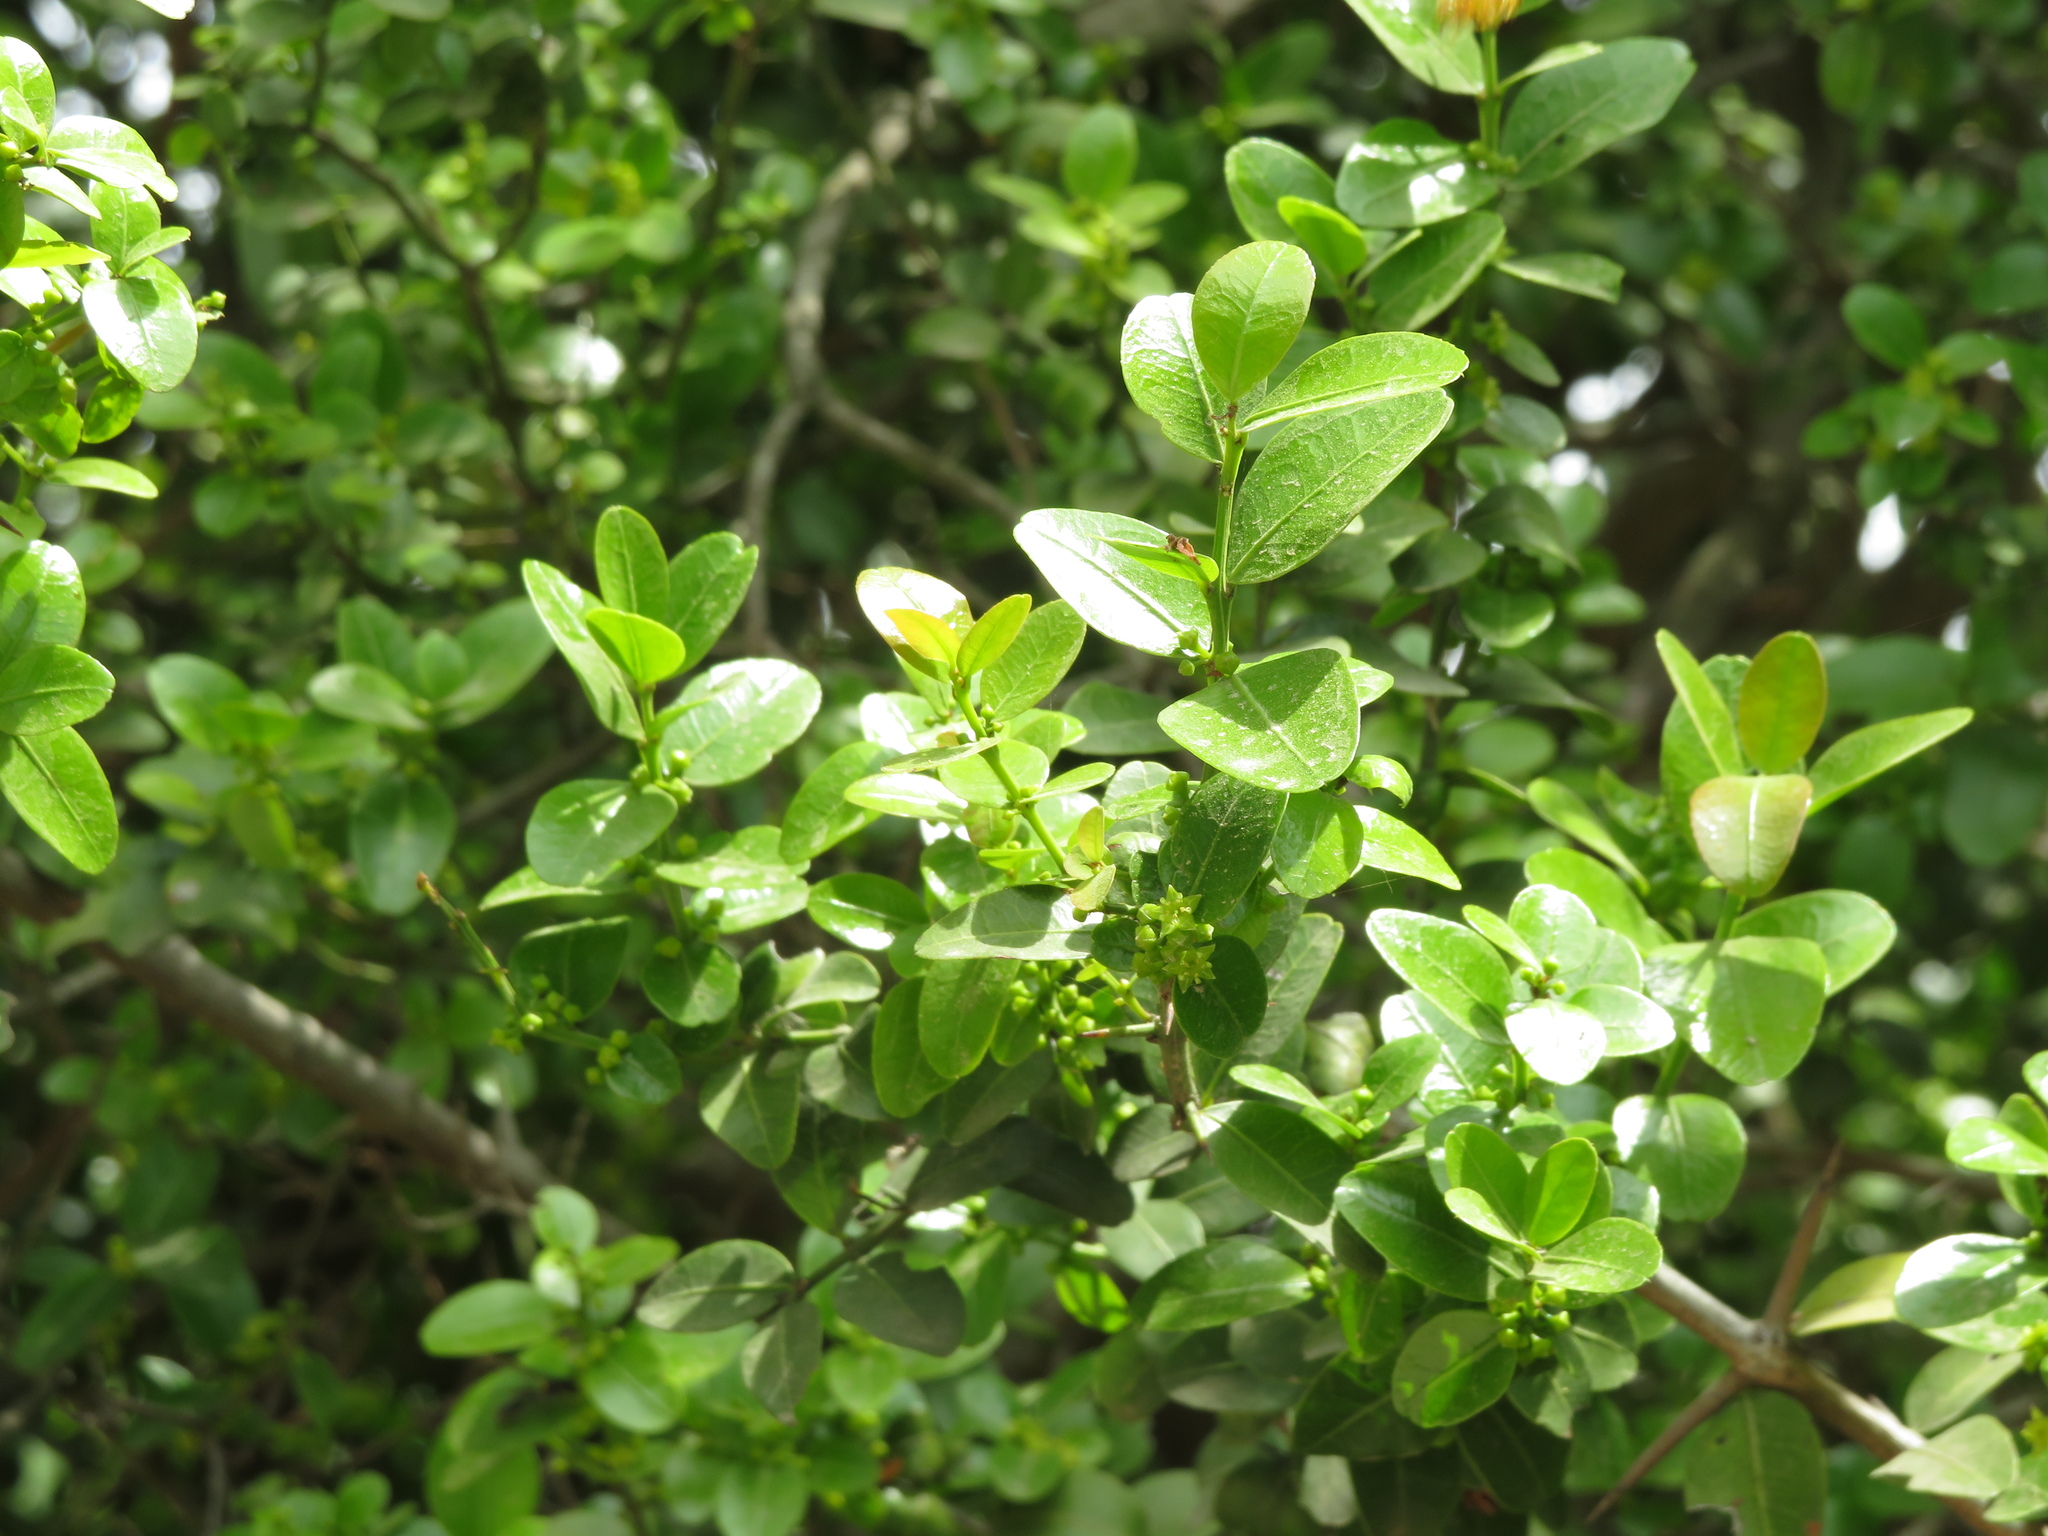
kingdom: Plantae
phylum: Tracheophyta
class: Magnoliopsida
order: Rosales
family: Rhamnaceae
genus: Scutia
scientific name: Scutia buxifolia
